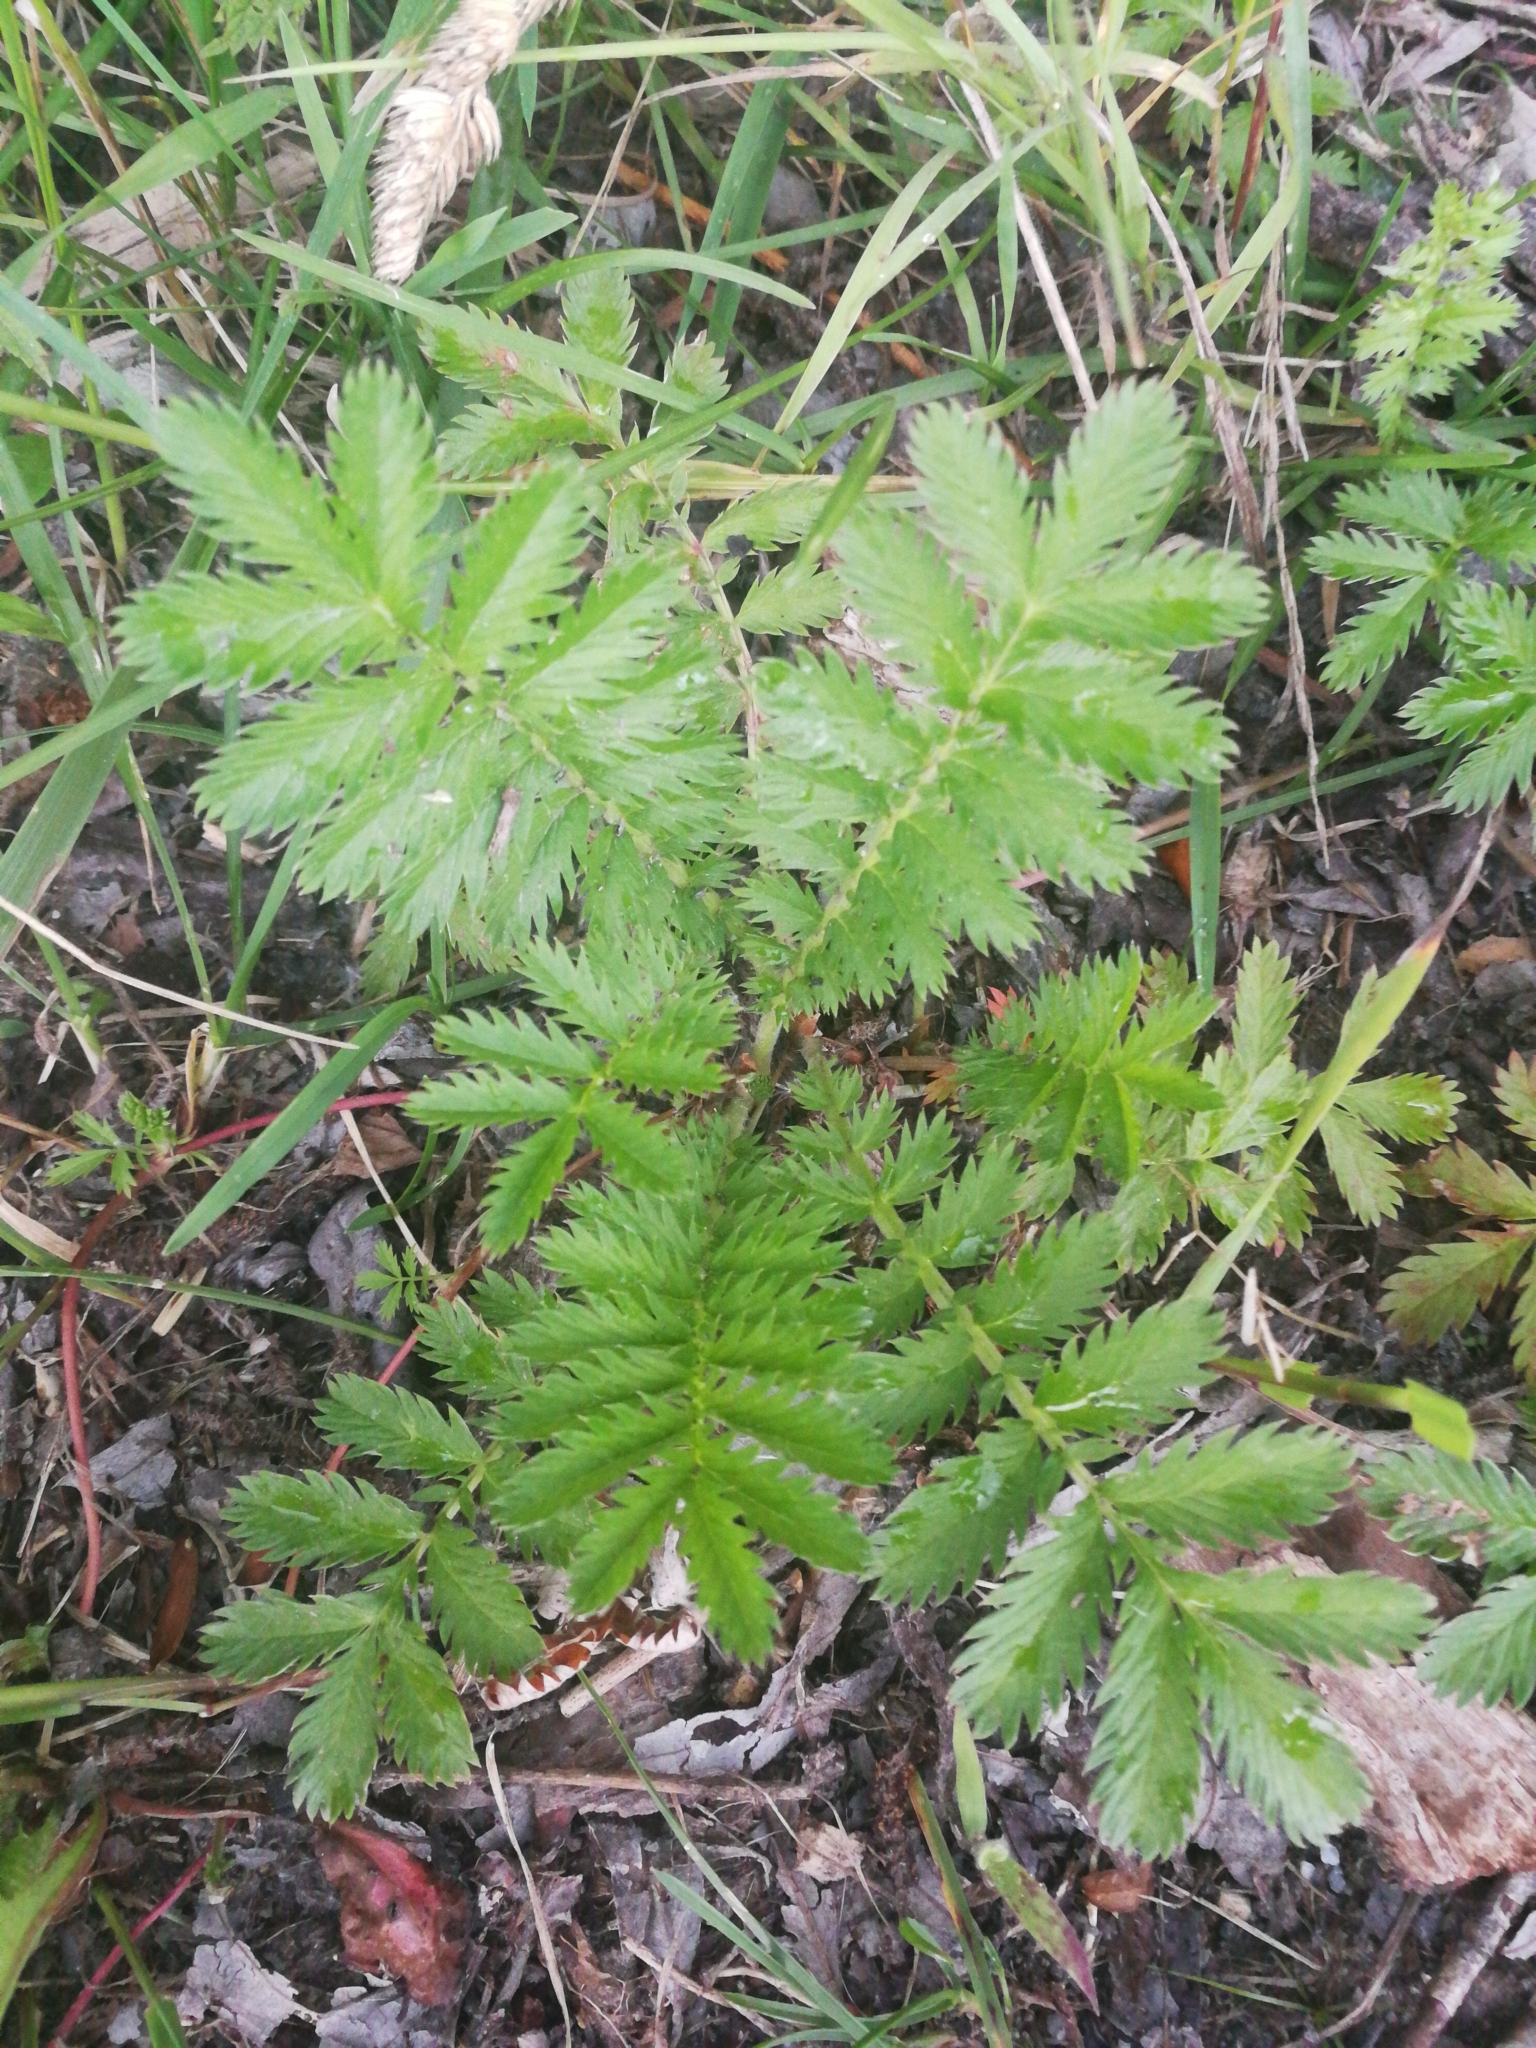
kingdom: Plantae
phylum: Tracheophyta
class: Magnoliopsida
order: Rosales
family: Rosaceae
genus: Argentina
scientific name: Argentina anserina
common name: Common silverweed
